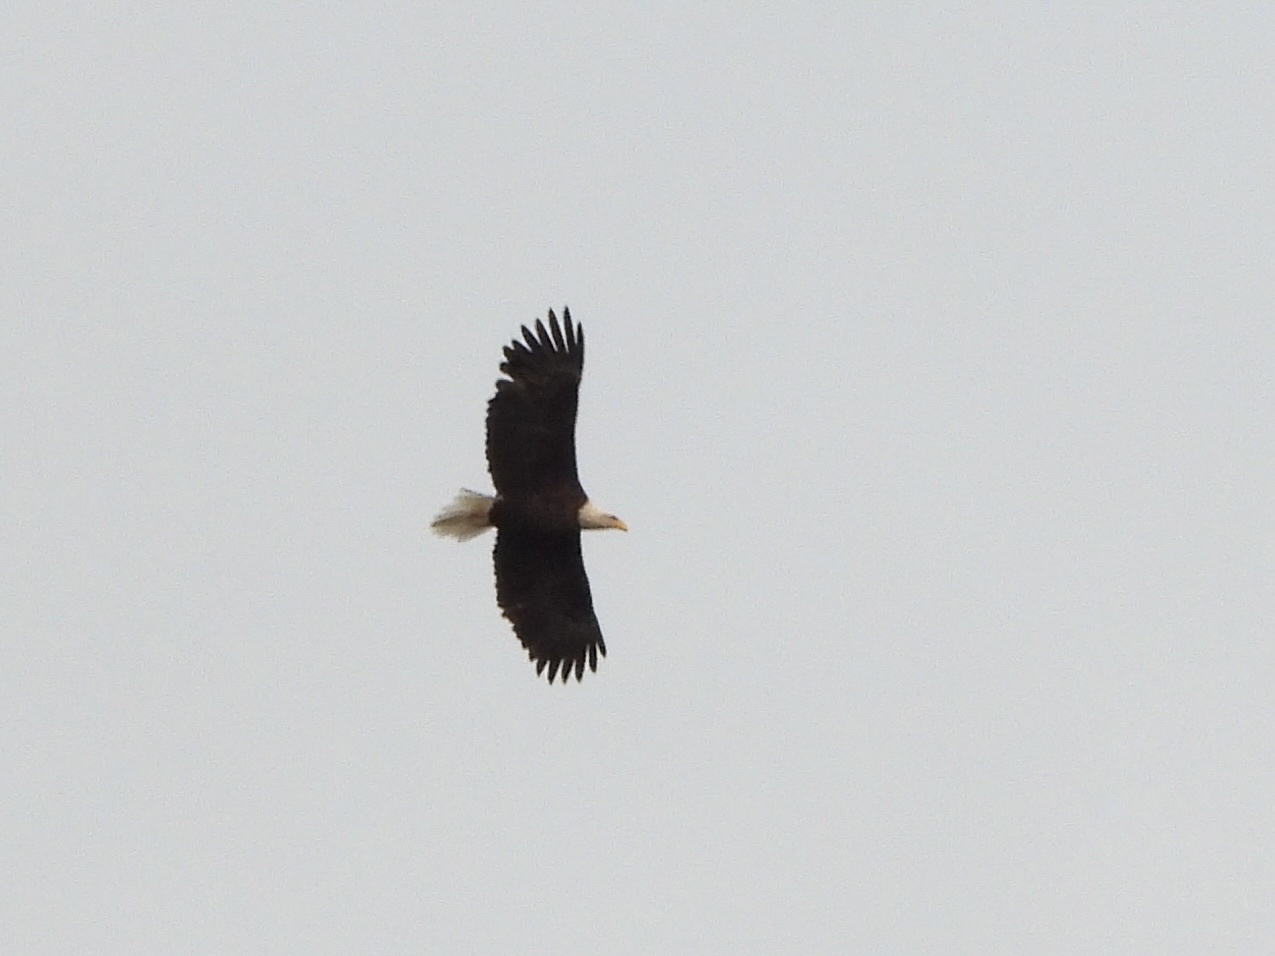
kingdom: Animalia
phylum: Chordata
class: Aves
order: Accipitriformes
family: Accipitridae
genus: Haliaeetus
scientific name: Haliaeetus leucocephalus
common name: Bald eagle
